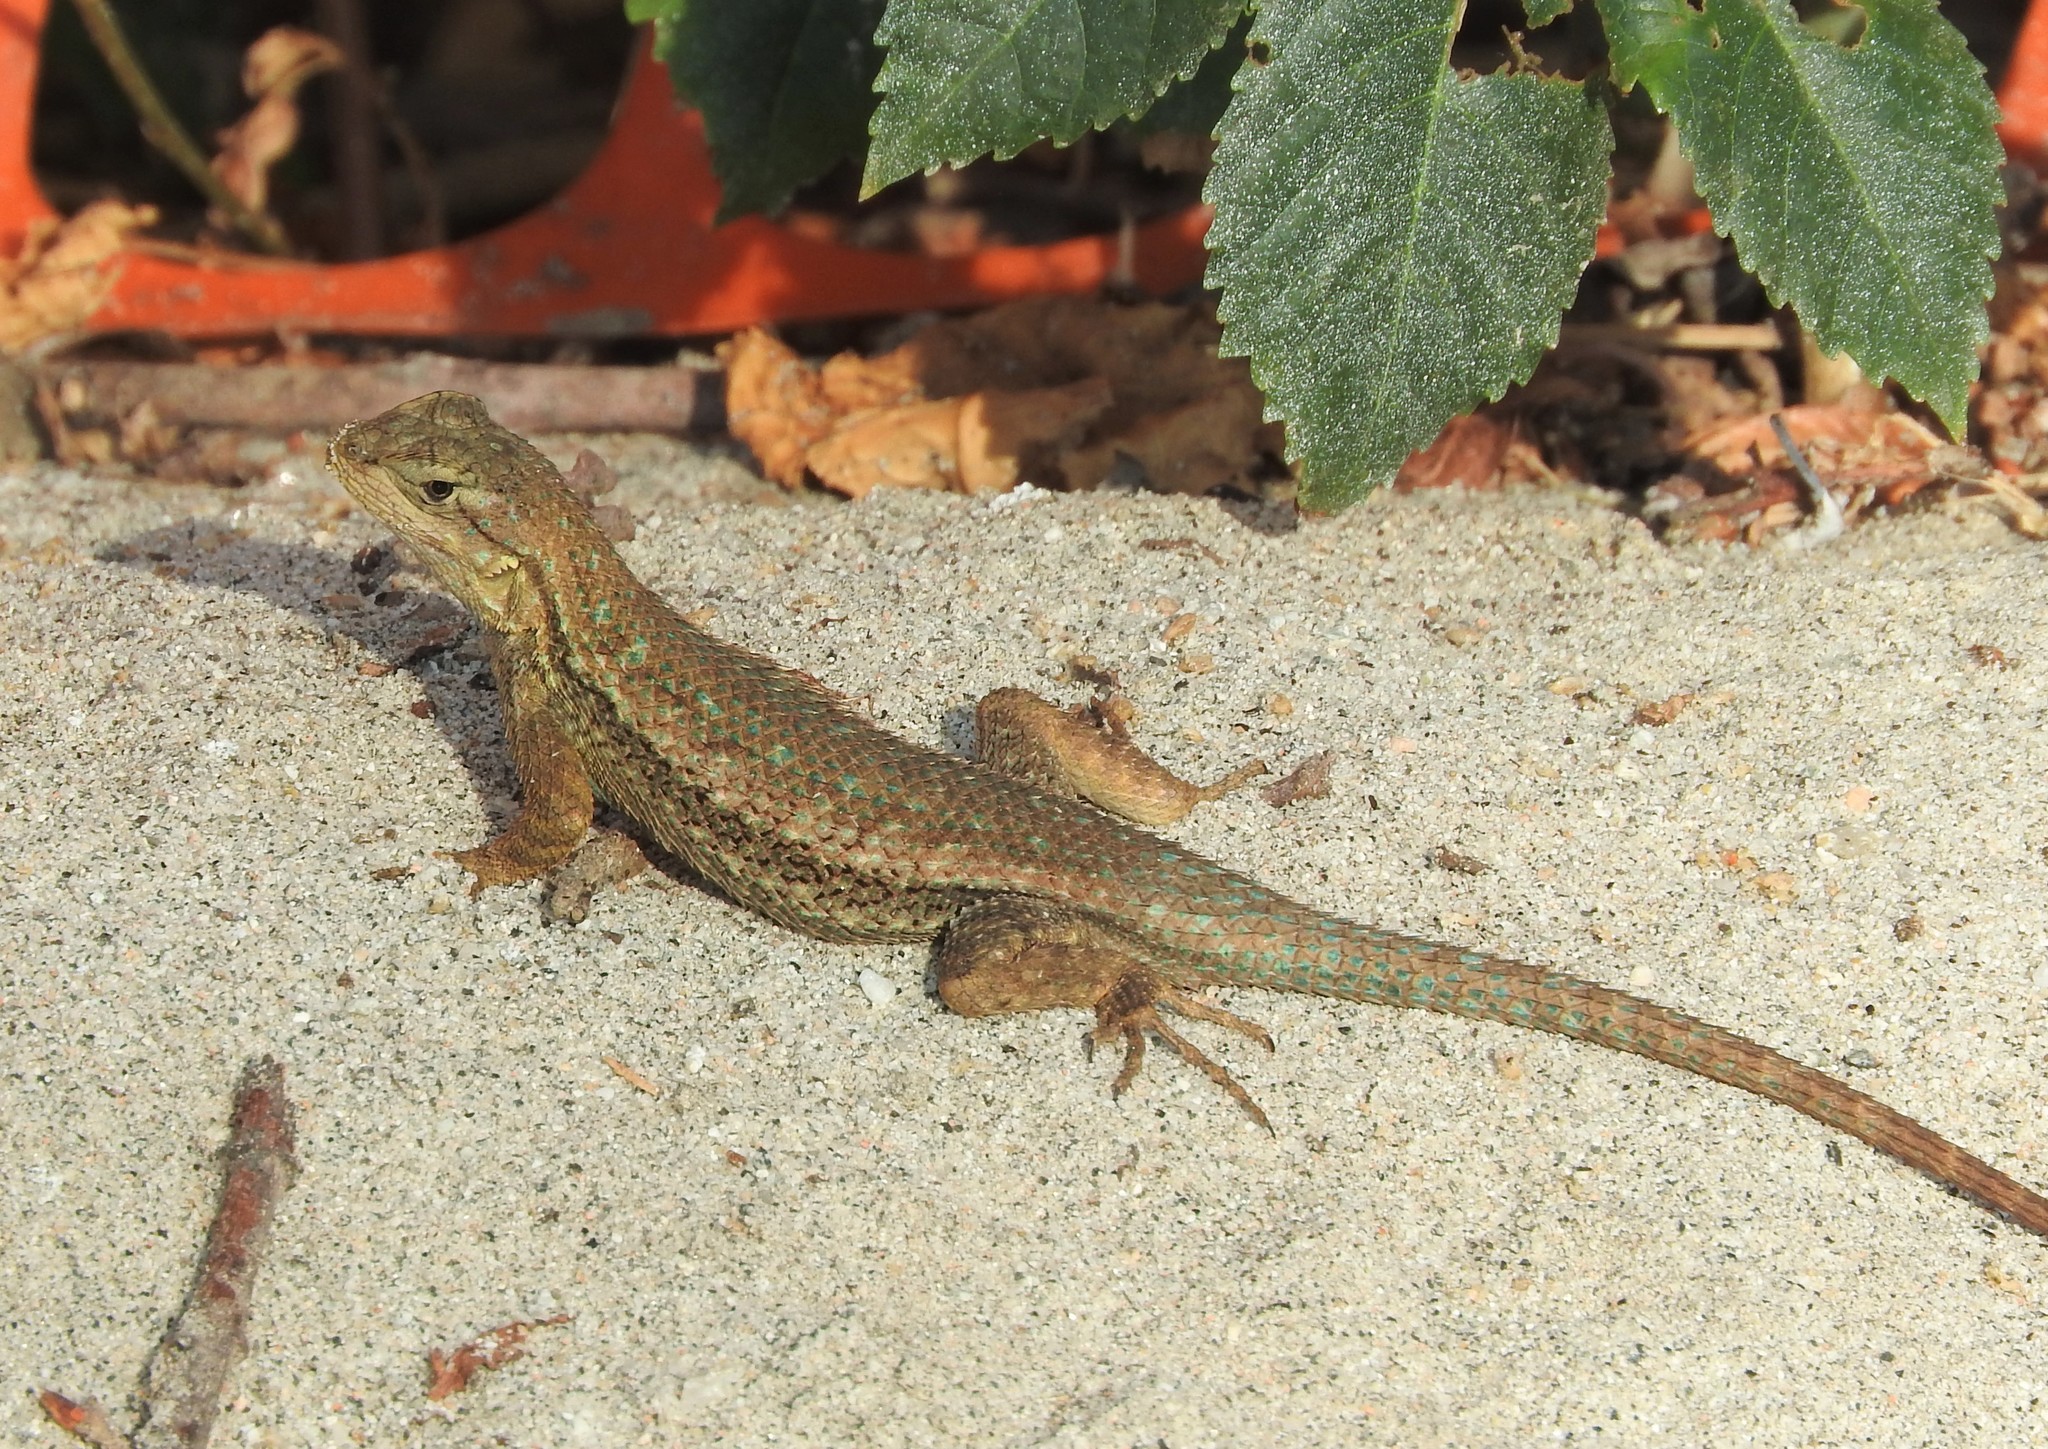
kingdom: Animalia
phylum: Chordata
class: Squamata
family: Phrynosomatidae
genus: Sceloporus
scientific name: Sceloporus occidentalis
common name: Western fence lizard
